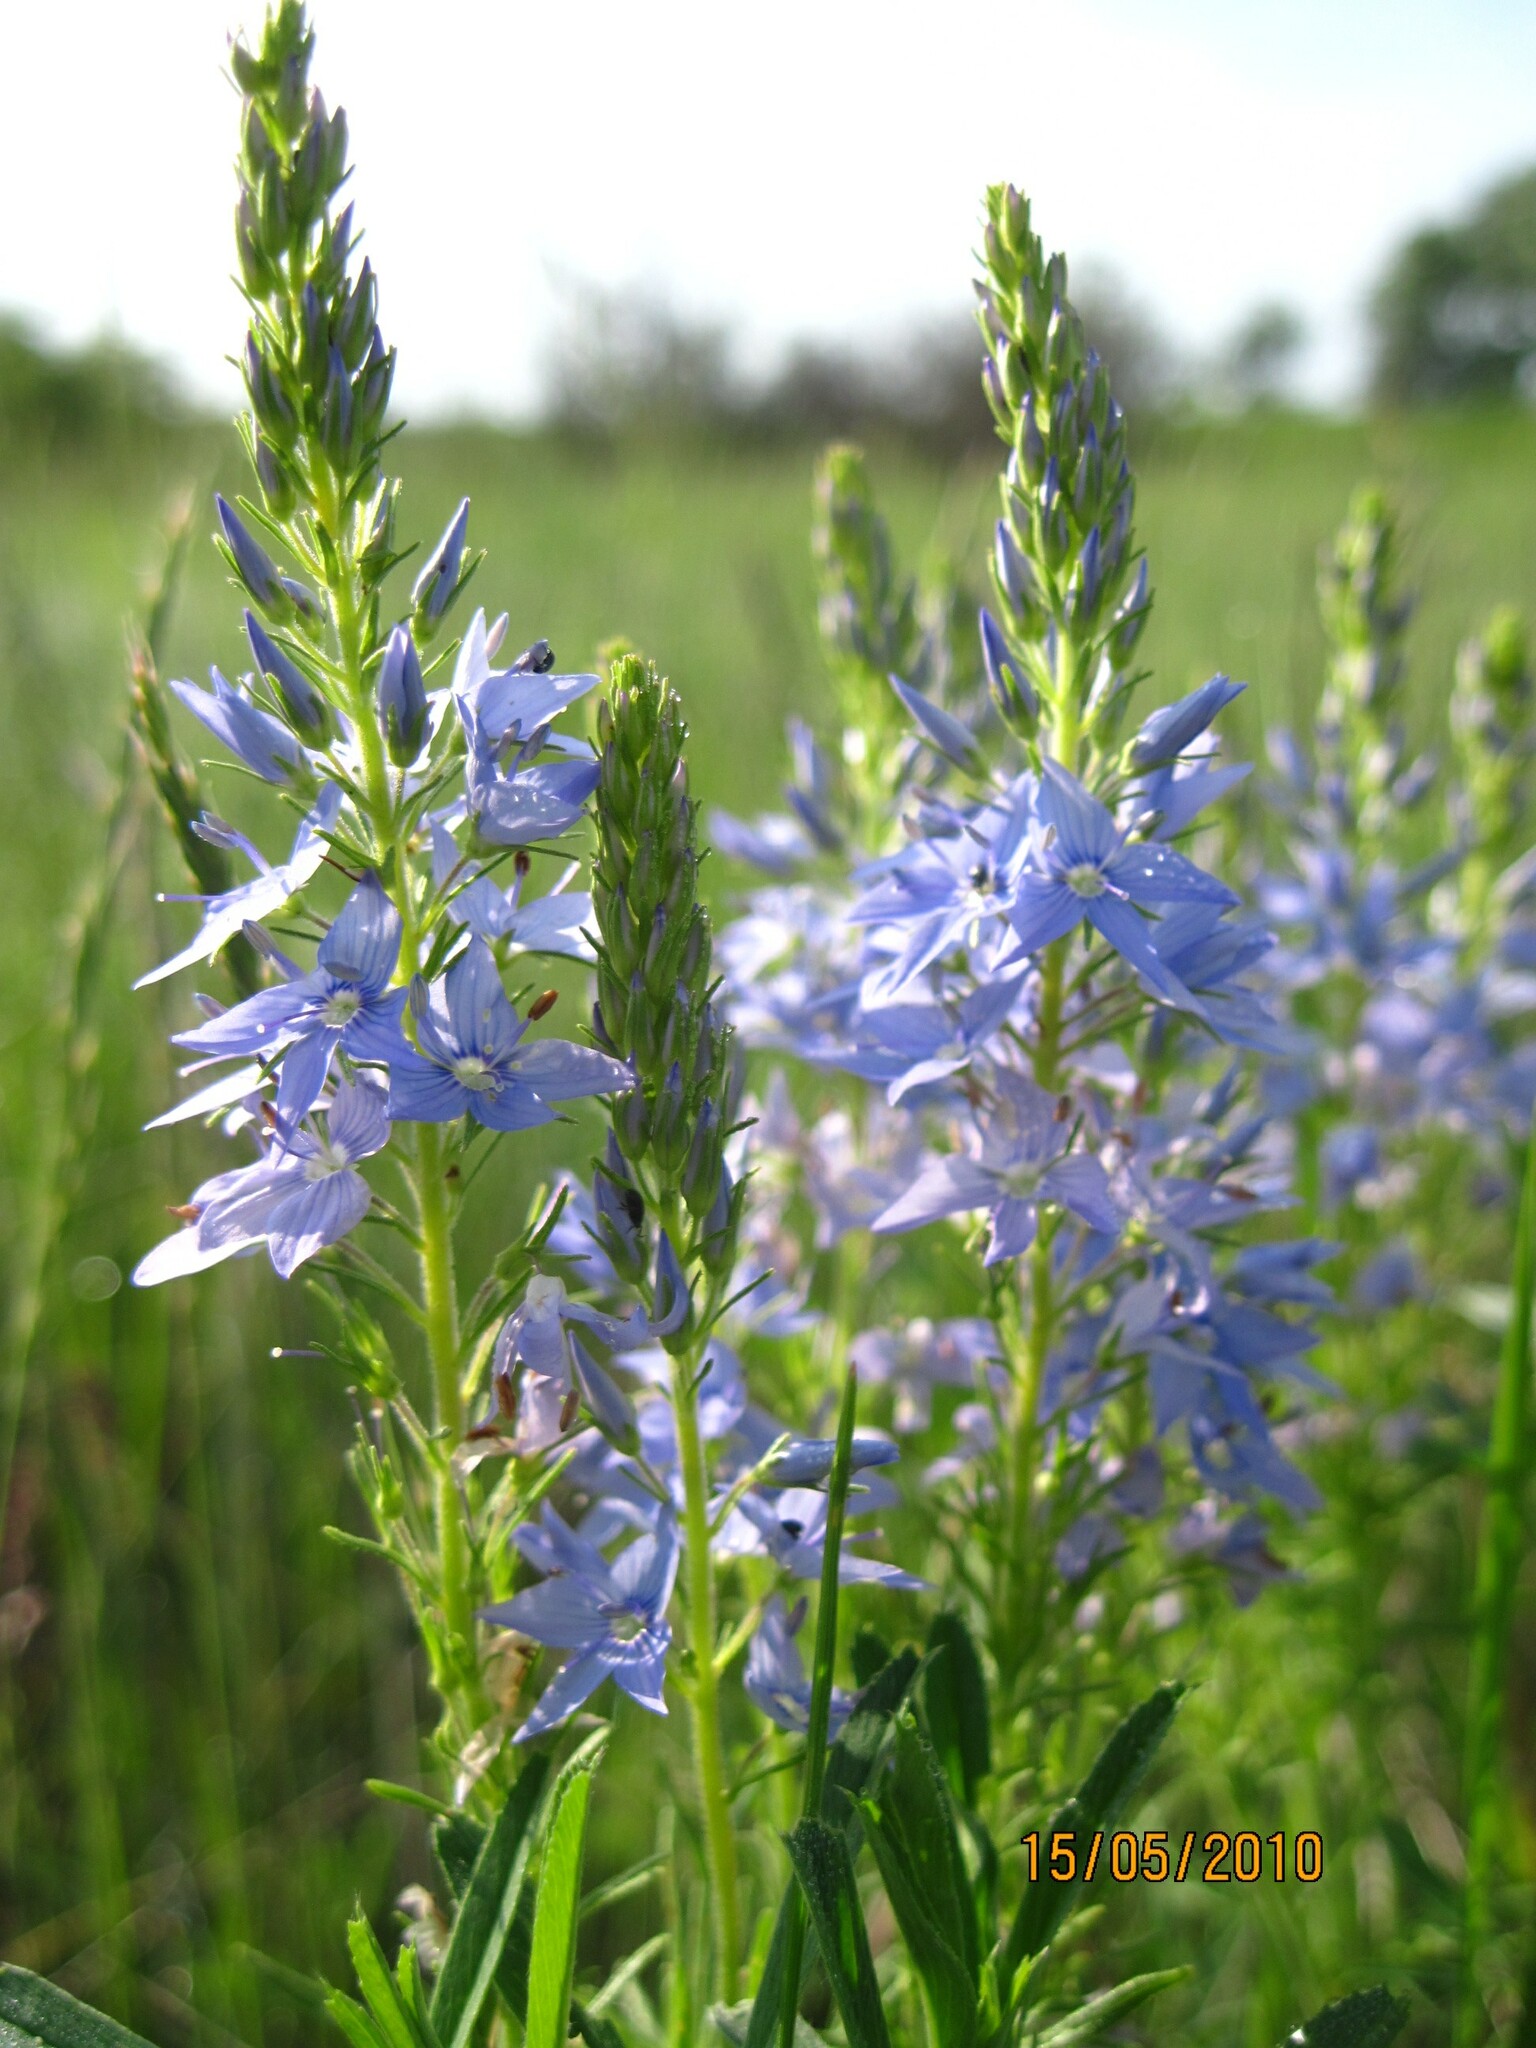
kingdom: Plantae
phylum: Tracheophyta
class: Magnoliopsida
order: Lamiales
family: Plantaginaceae
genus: Veronica
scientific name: Veronica austriaca
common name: Large speedwell
